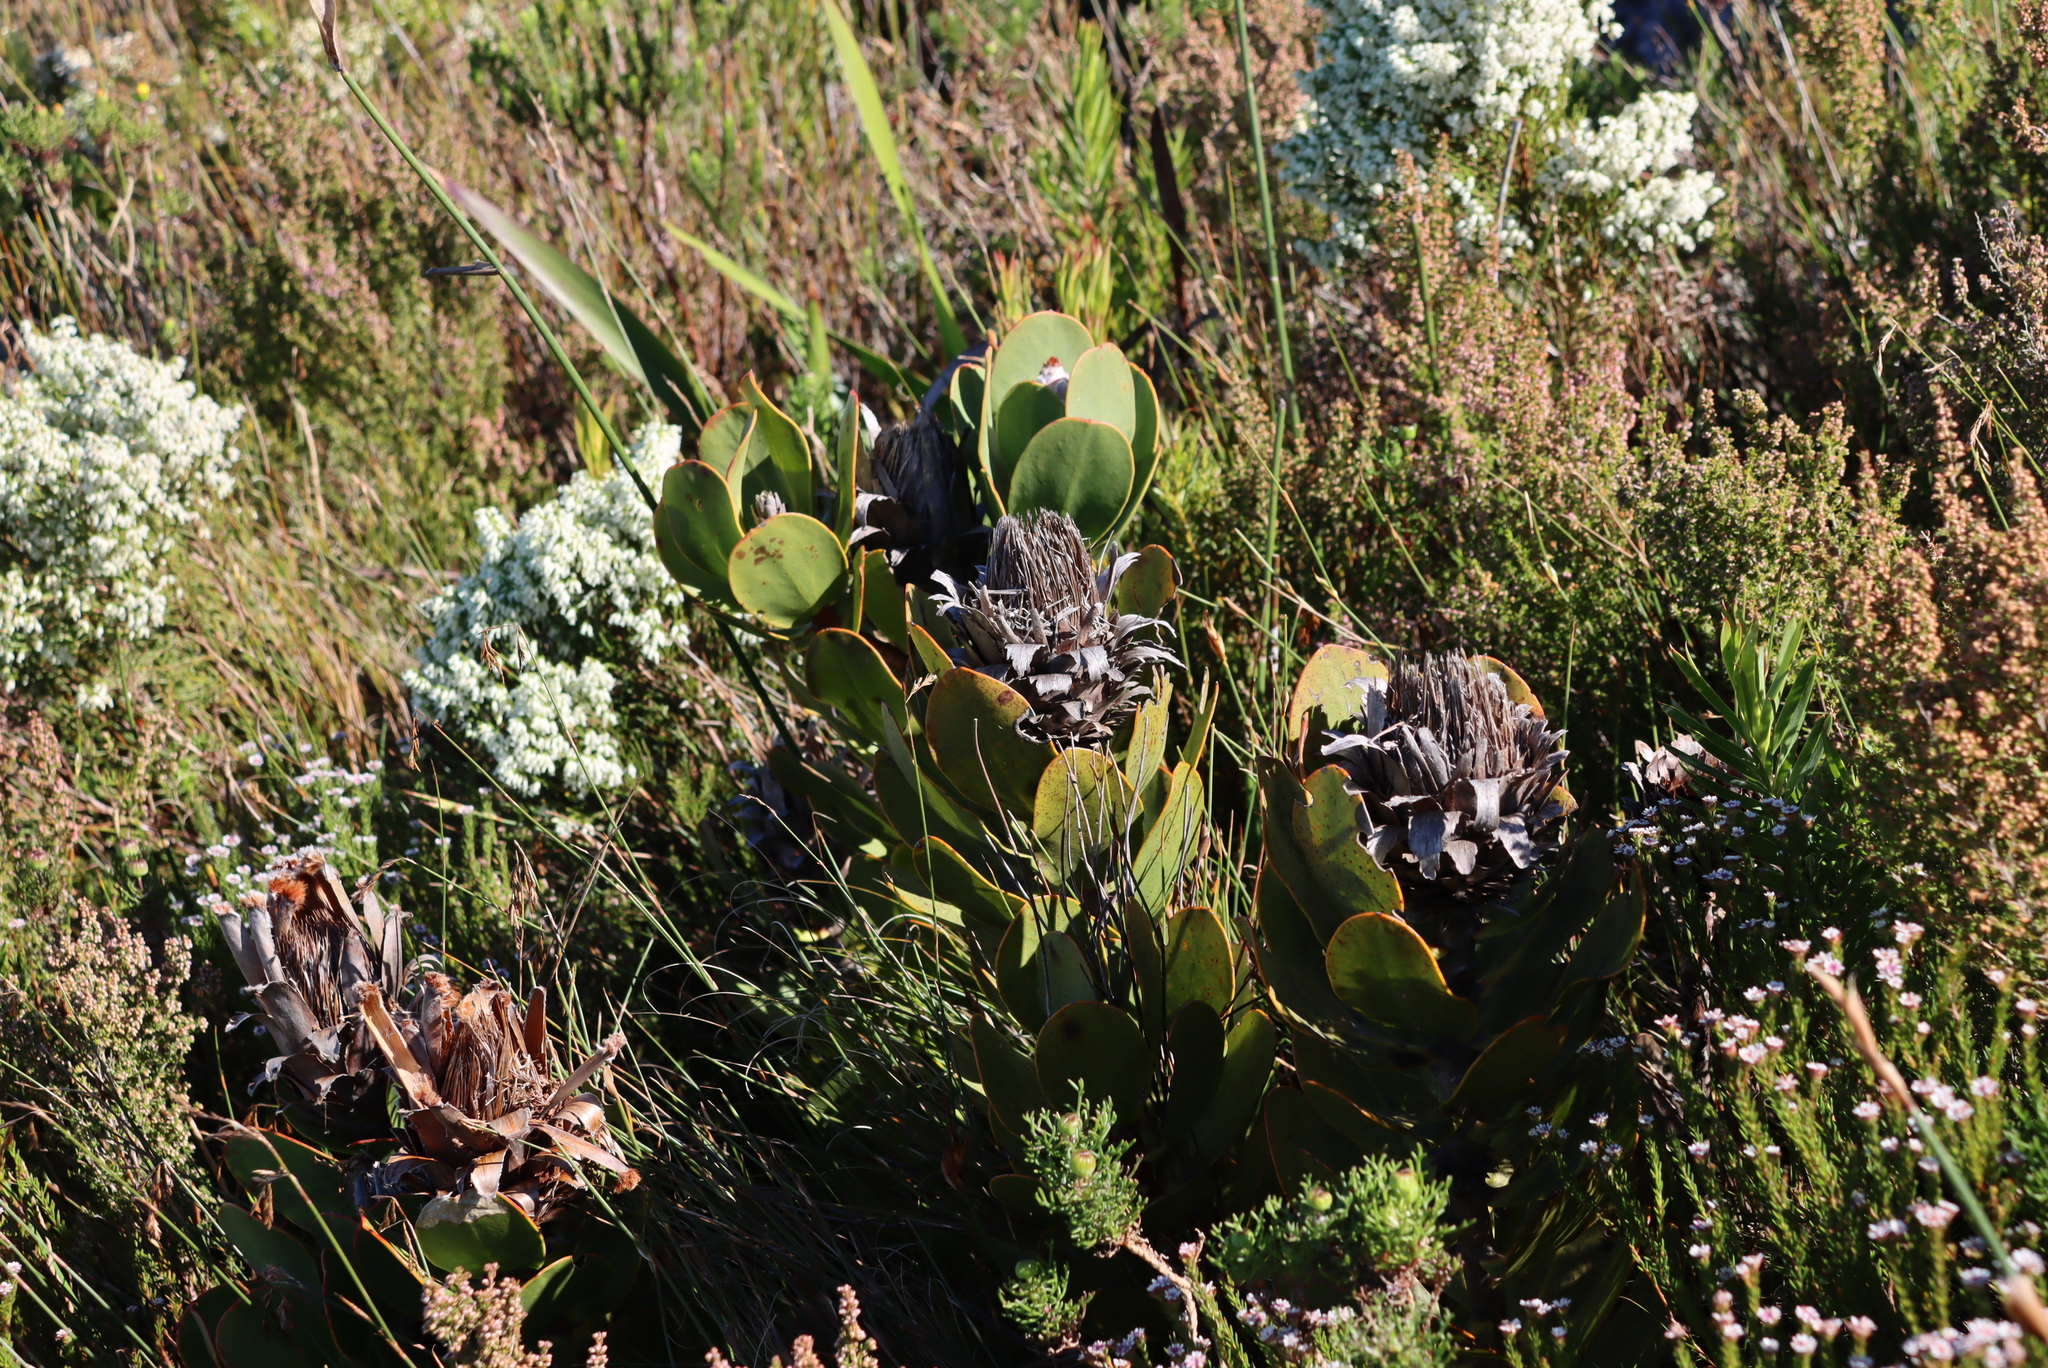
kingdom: Plantae
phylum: Tracheophyta
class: Magnoliopsida
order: Proteales
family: Proteaceae
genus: Protea
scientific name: Protea speciosa
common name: Brown-beard sugarbush
